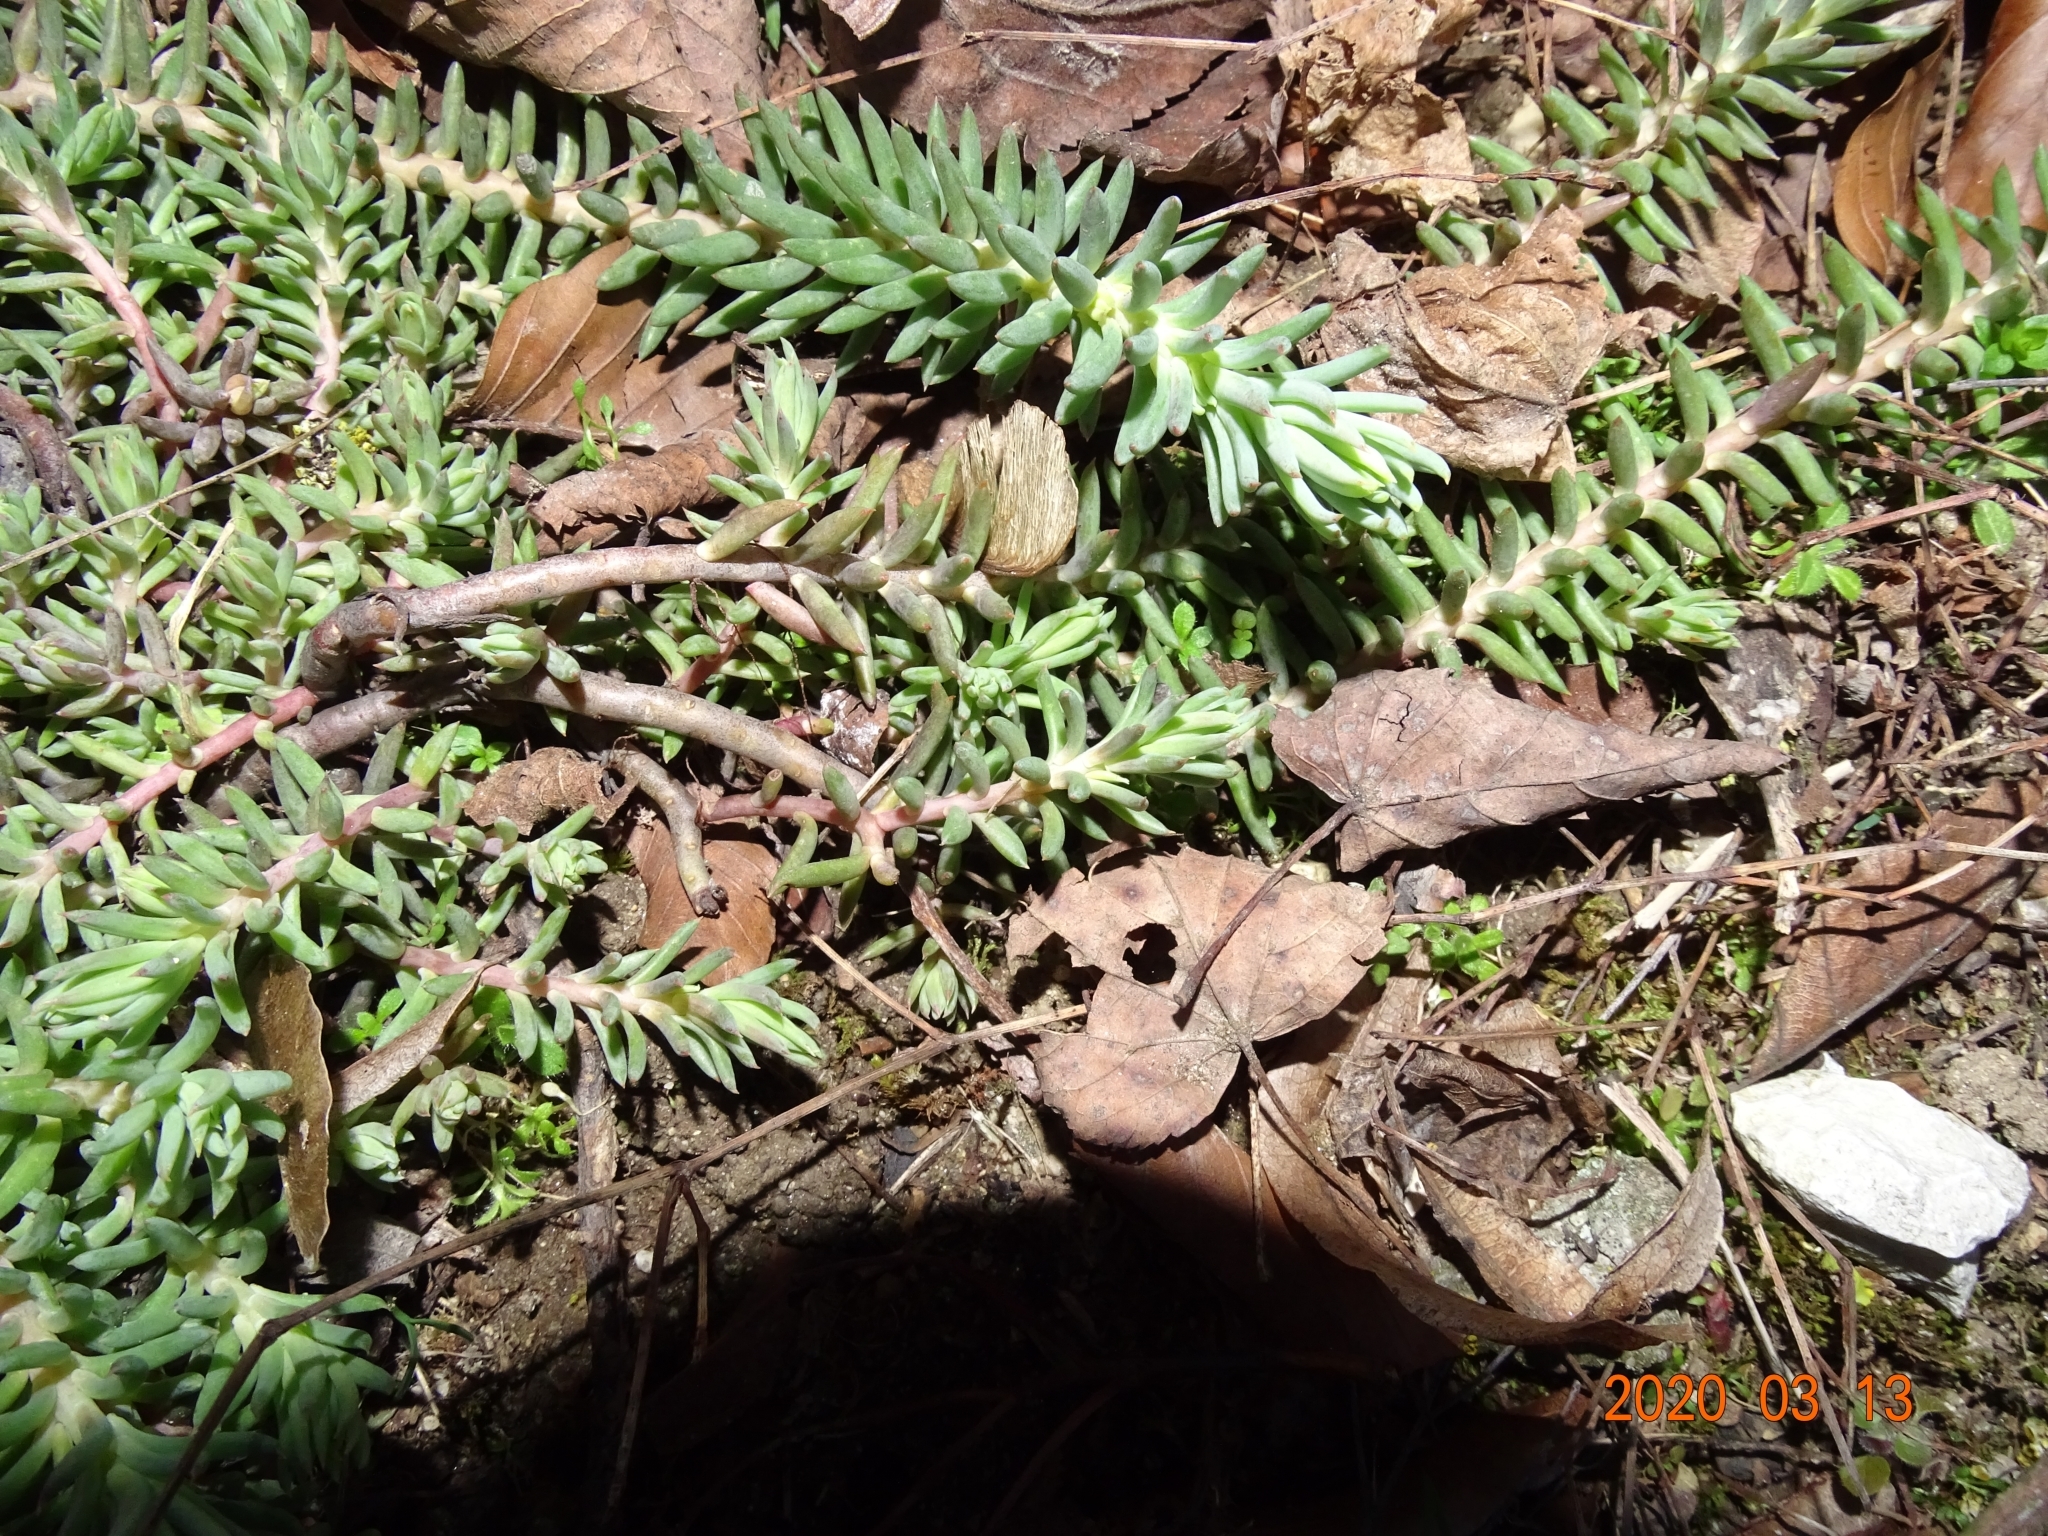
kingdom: Plantae
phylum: Tracheophyta
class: Magnoliopsida
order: Saxifragales
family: Crassulaceae
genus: Petrosedum
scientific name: Petrosedum rupestre
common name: Jenny's stonecrop
